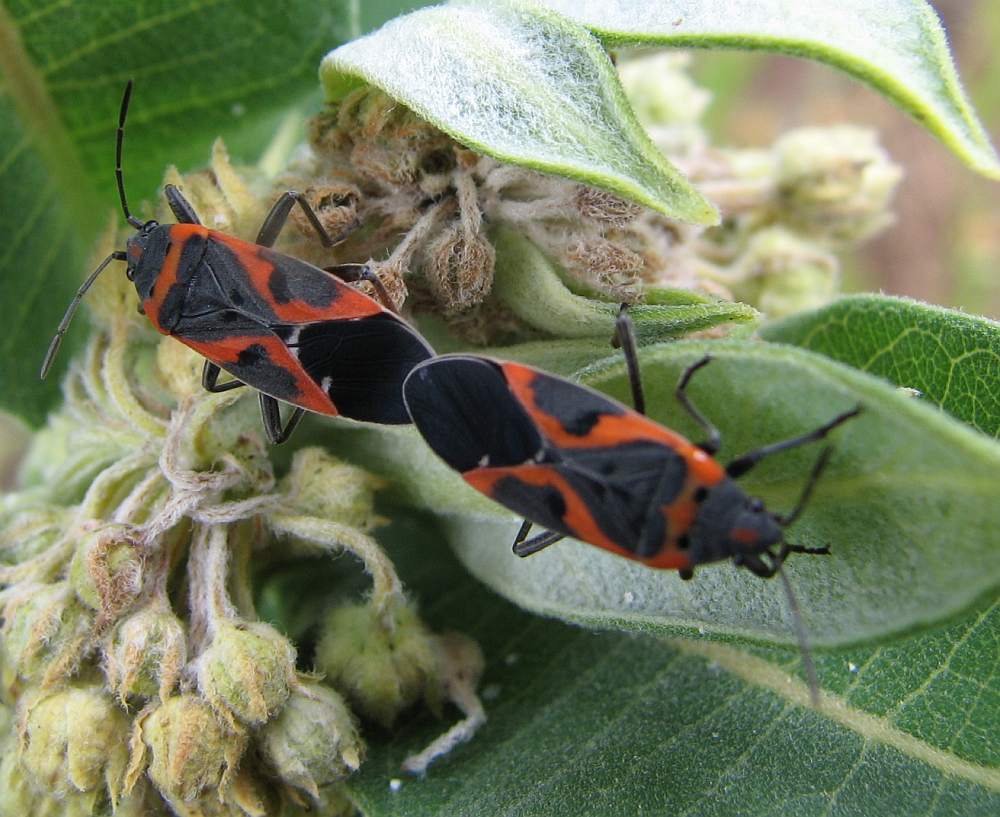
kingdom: Animalia
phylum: Arthropoda
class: Insecta
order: Hemiptera
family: Lygaeidae
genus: Lygaeus
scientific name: Lygaeus kalmii
